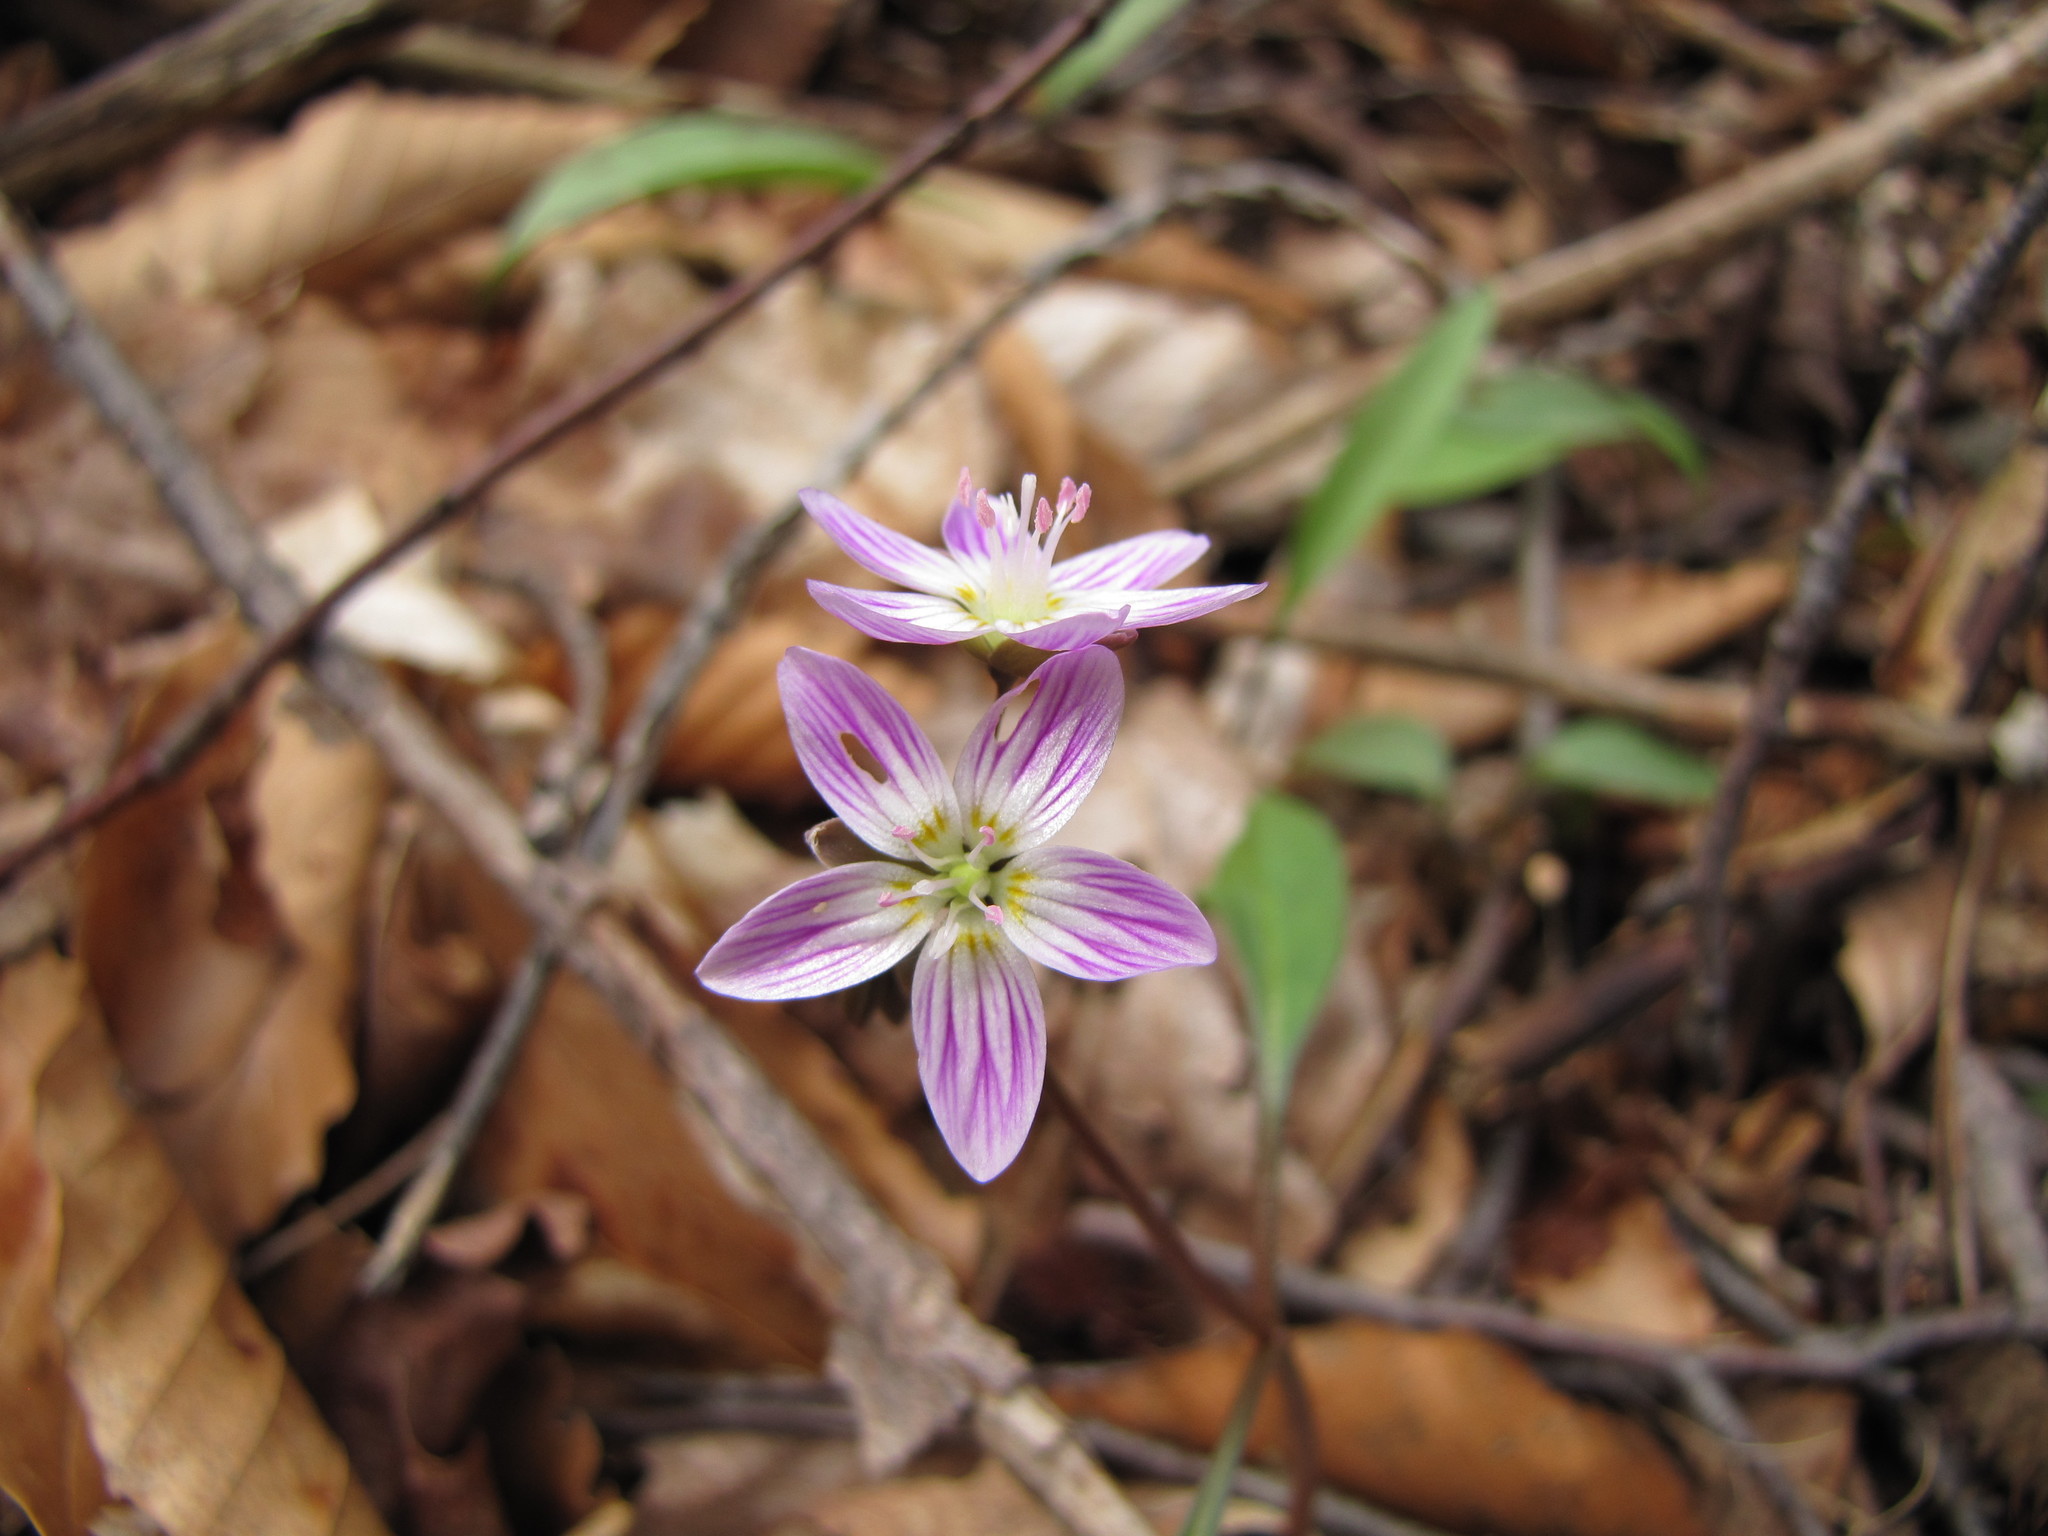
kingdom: Plantae
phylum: Tracheophyta
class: Magnoliopsida
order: Caryophyllales
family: Montiaceae
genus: Claytonia
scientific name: Claytonia caroliniana
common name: Carolina spring beauty
